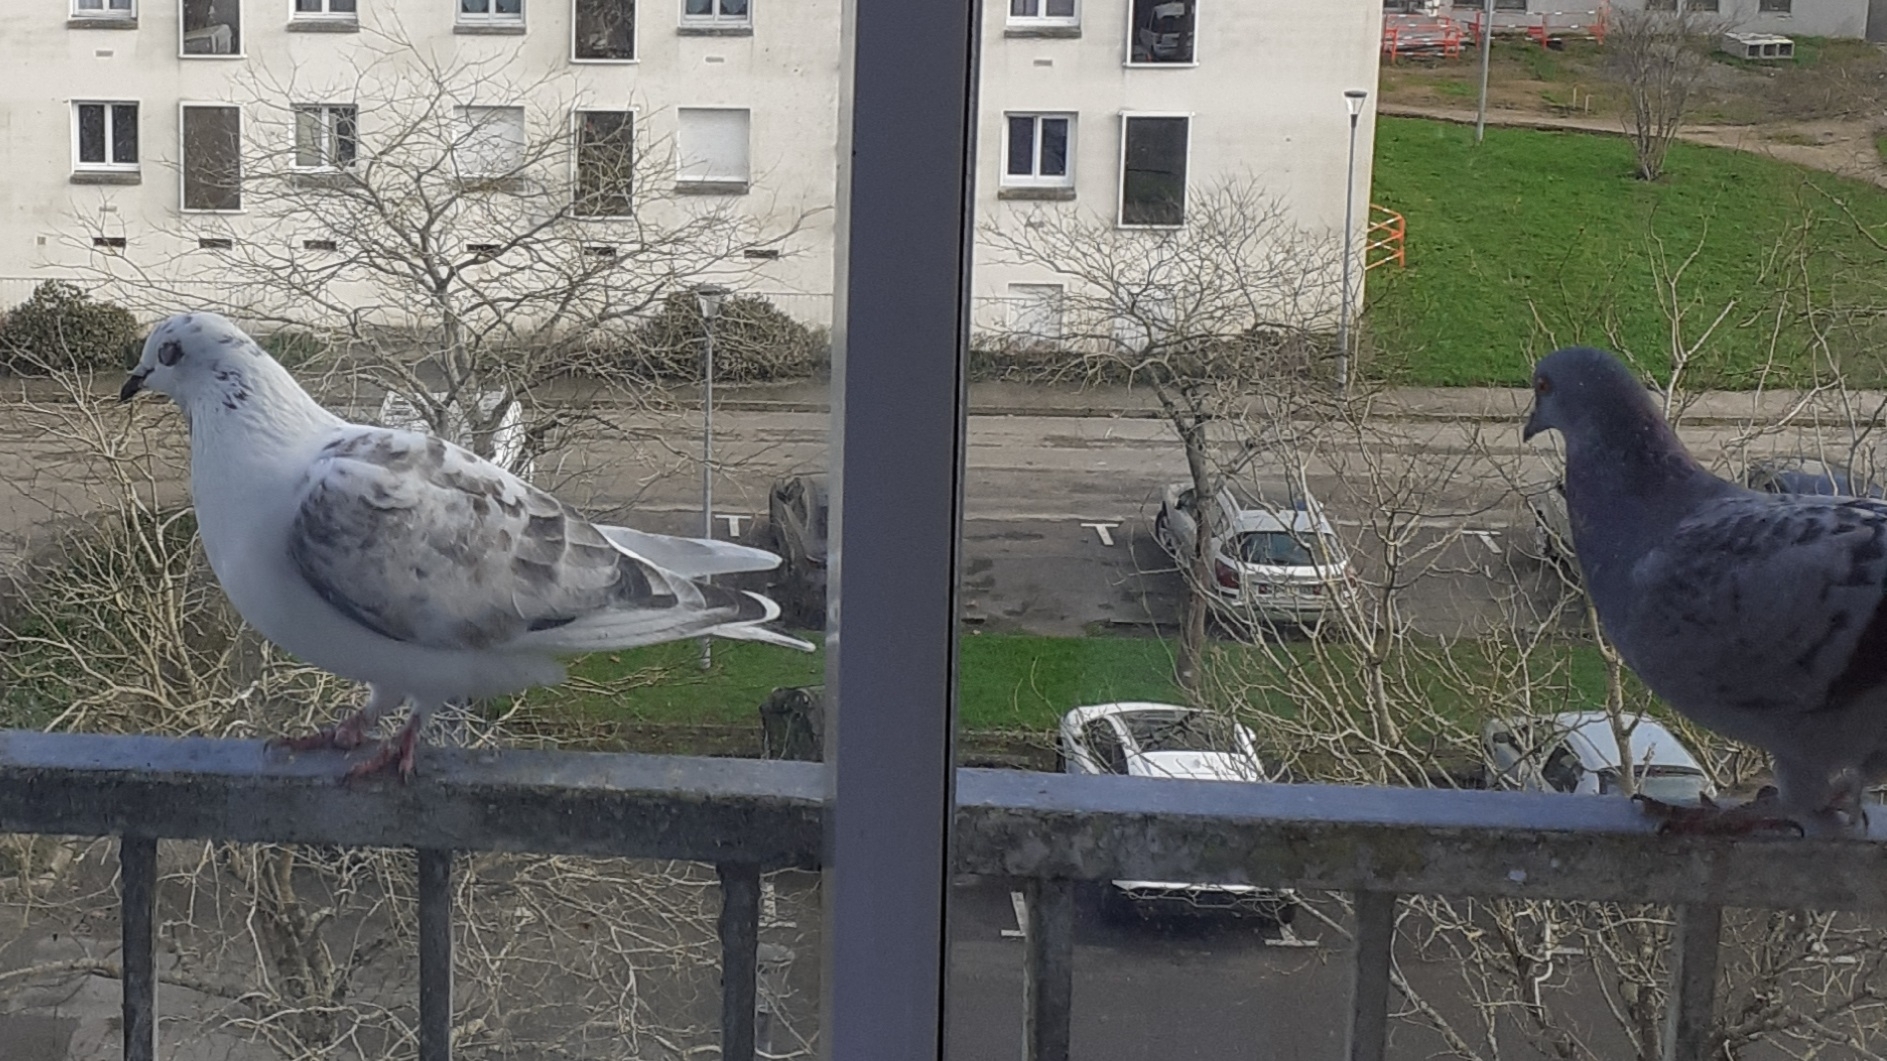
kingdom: Animalia
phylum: Chordata
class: Aves
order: Columbiformes
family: Columbidae
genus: Columba
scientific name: Columba livia
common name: Rock pigeon
